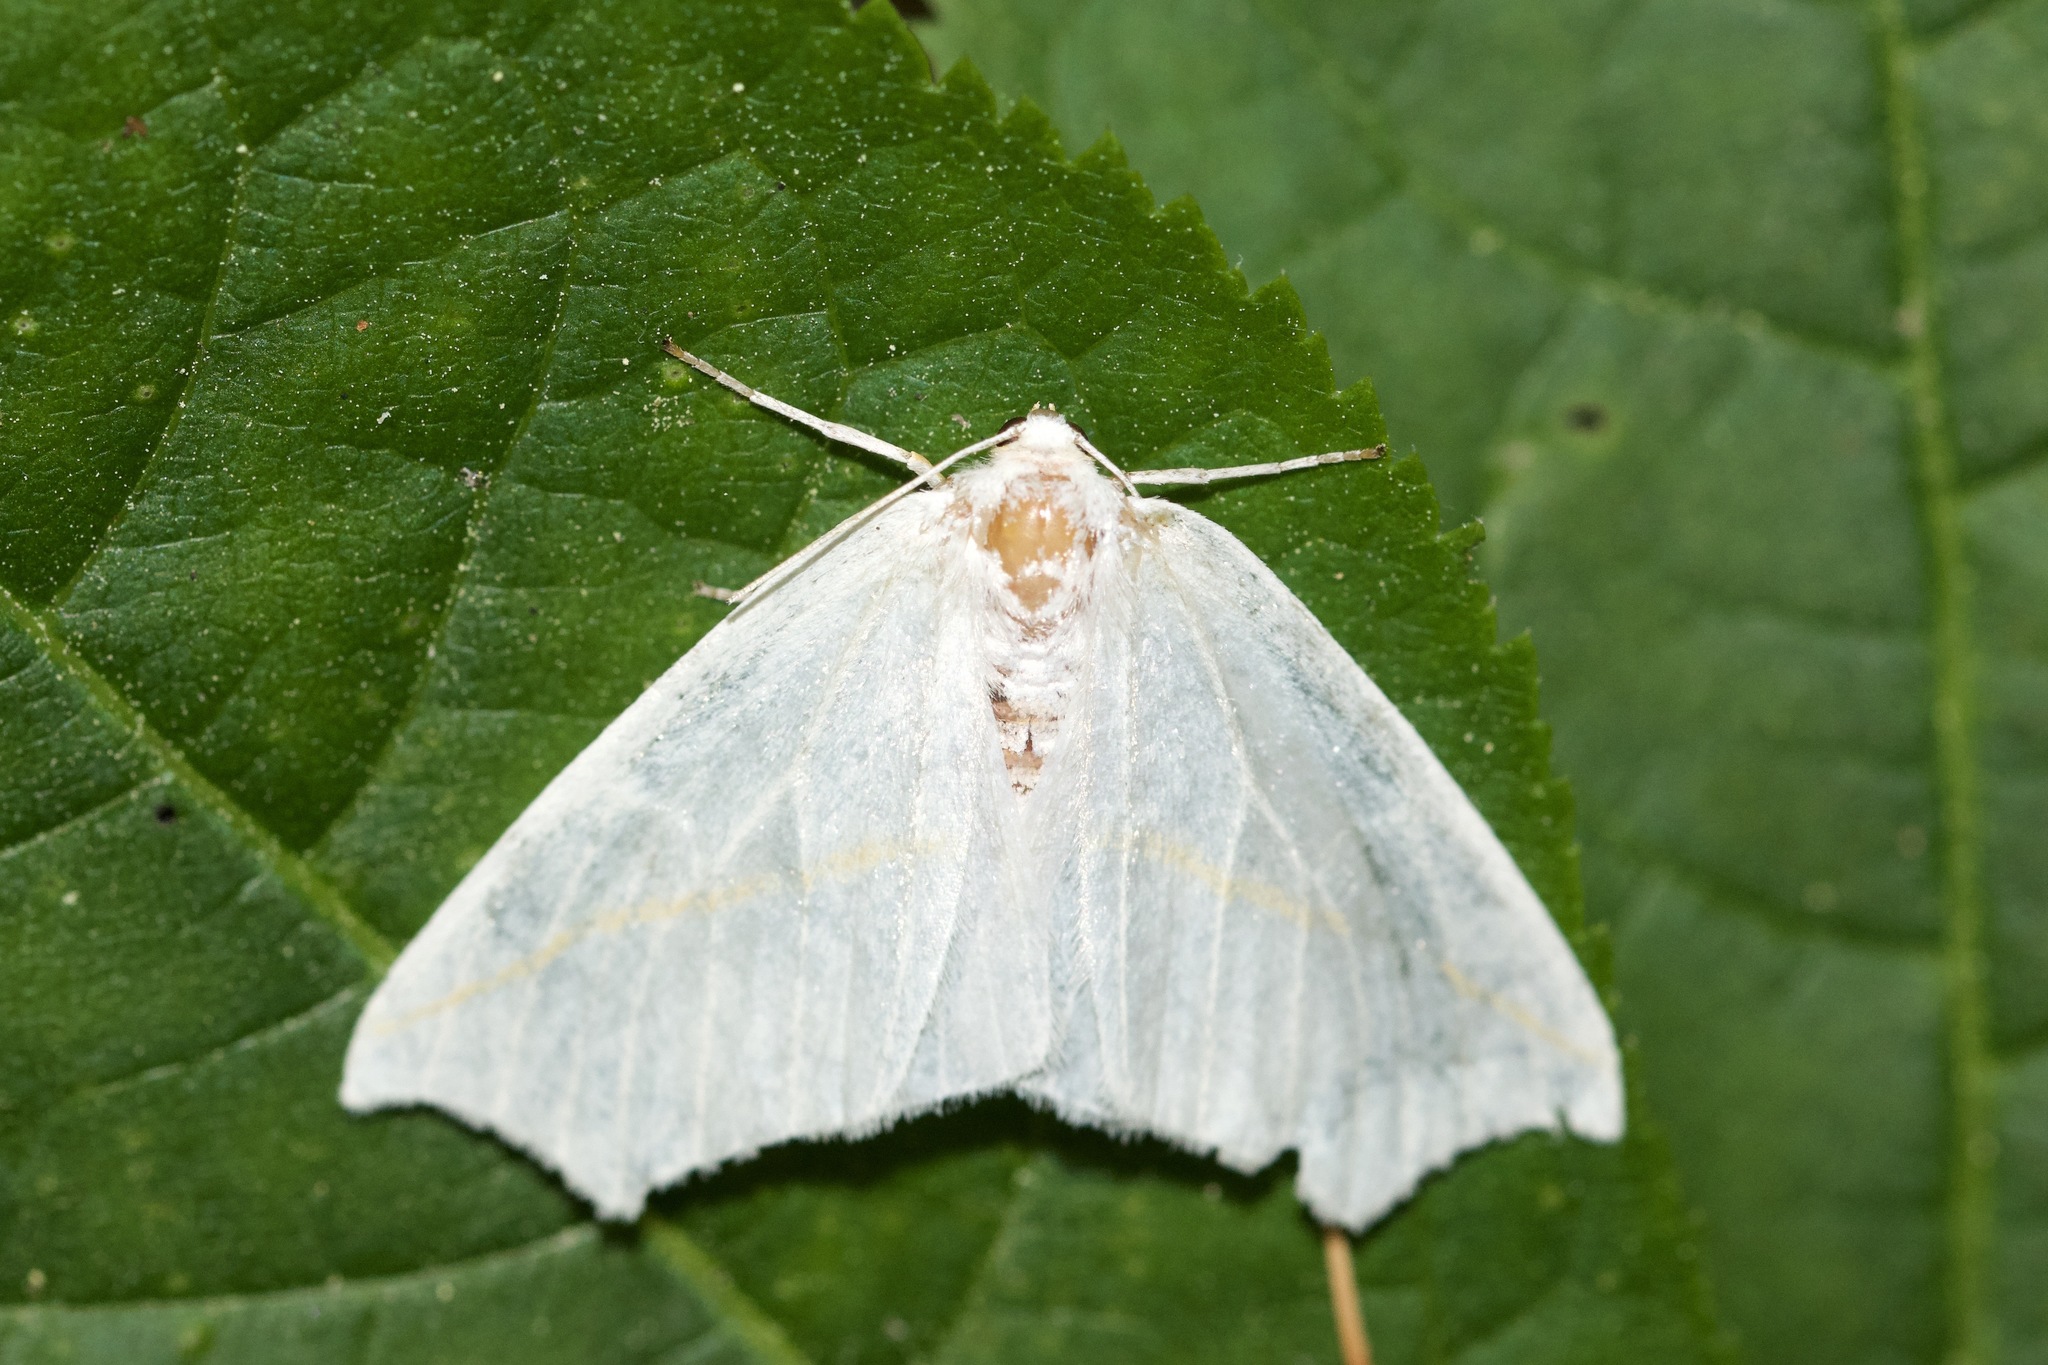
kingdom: Animalia
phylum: Arthropoda
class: Insecta
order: Lepidoptera
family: Geometridae
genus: Tetracis
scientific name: Tetracis cachexiata
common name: White slant-line
